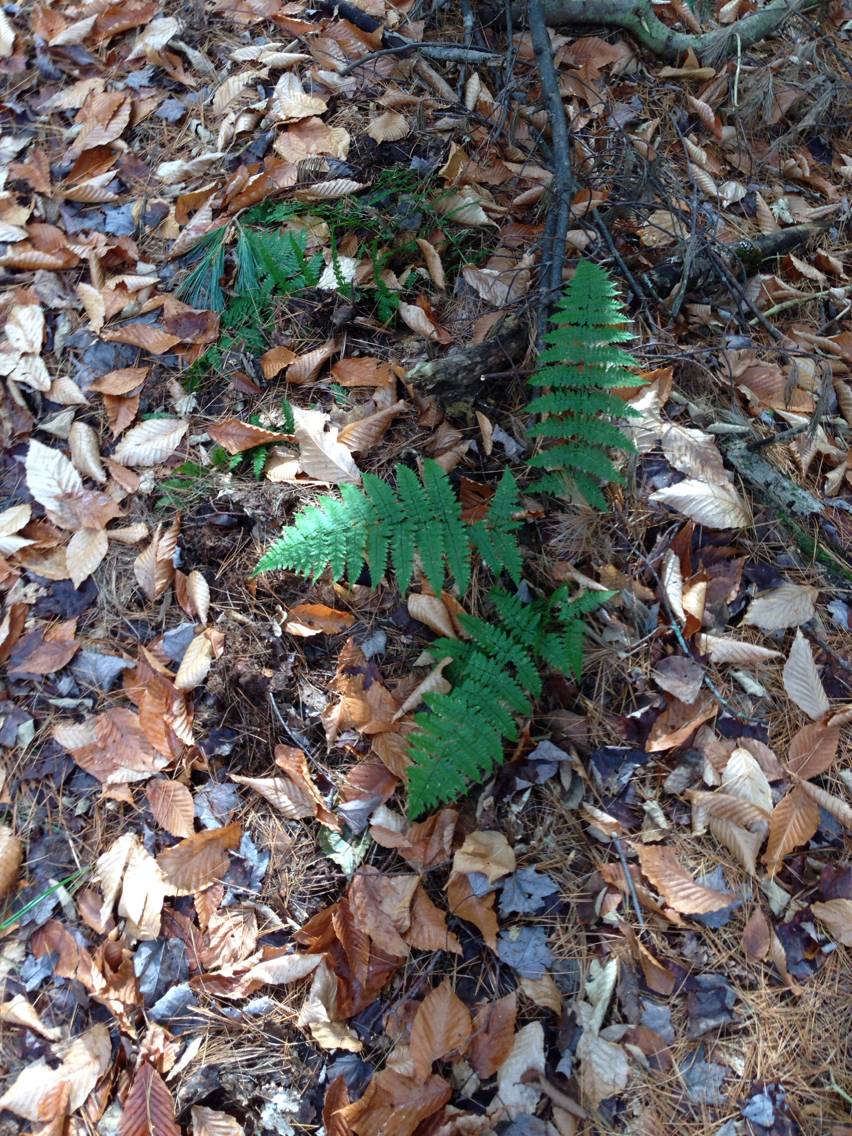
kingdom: Plantae
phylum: Tracheophyta
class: Polypodiopsida
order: Polypodiales
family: Dryopteridaceae
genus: Dryopteris
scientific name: Dryopteris intermedia
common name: Evergreen wood fern
